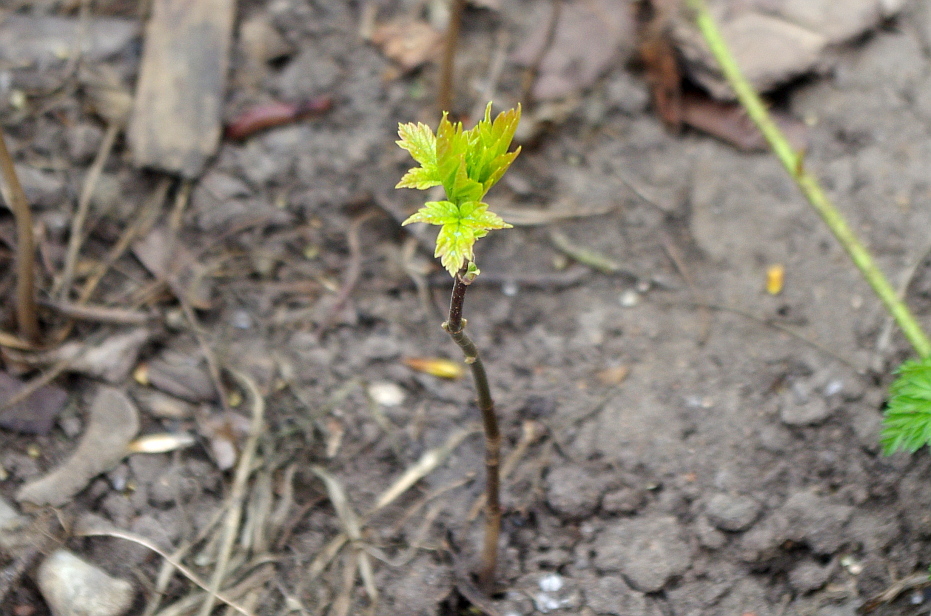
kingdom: Plantae
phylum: Tracheophyta
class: Magnoliopsida
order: Sapindales
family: Sapindaceae
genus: Acer
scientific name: Acer negundo
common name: Ashleaf maple
